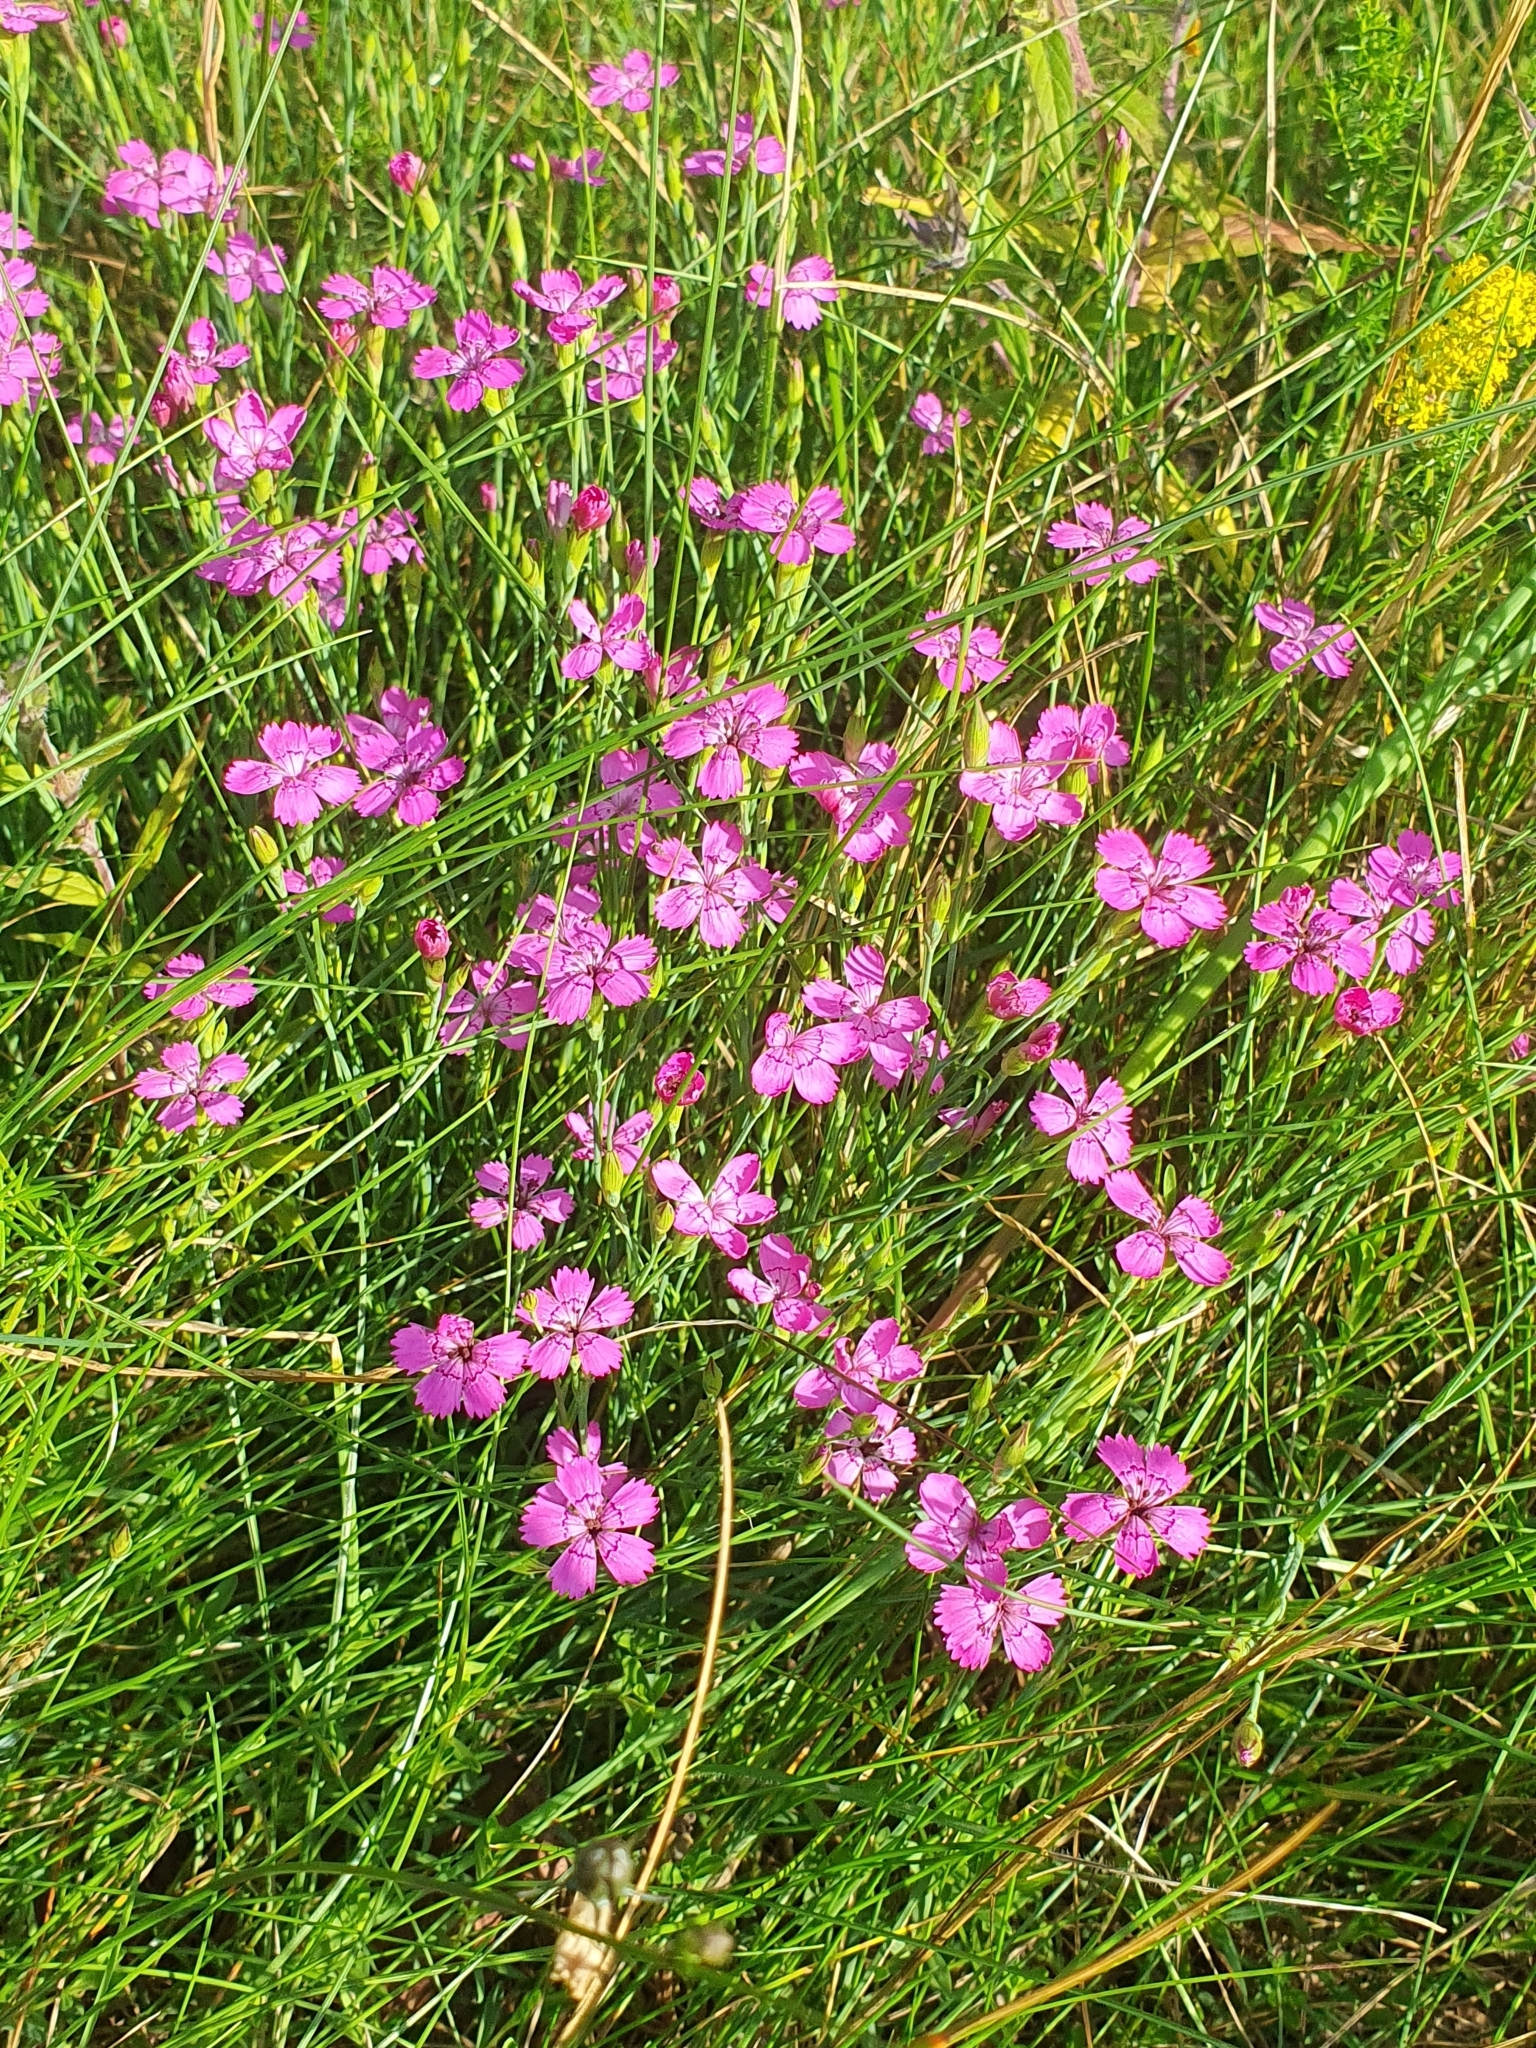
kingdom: Plantae
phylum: Tracheophyta
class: Magnoliopsida
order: Caryophyllales
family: Caryophyllaceae
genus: Dianthus
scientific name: Dianthus deltoides
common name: Maiden pink
